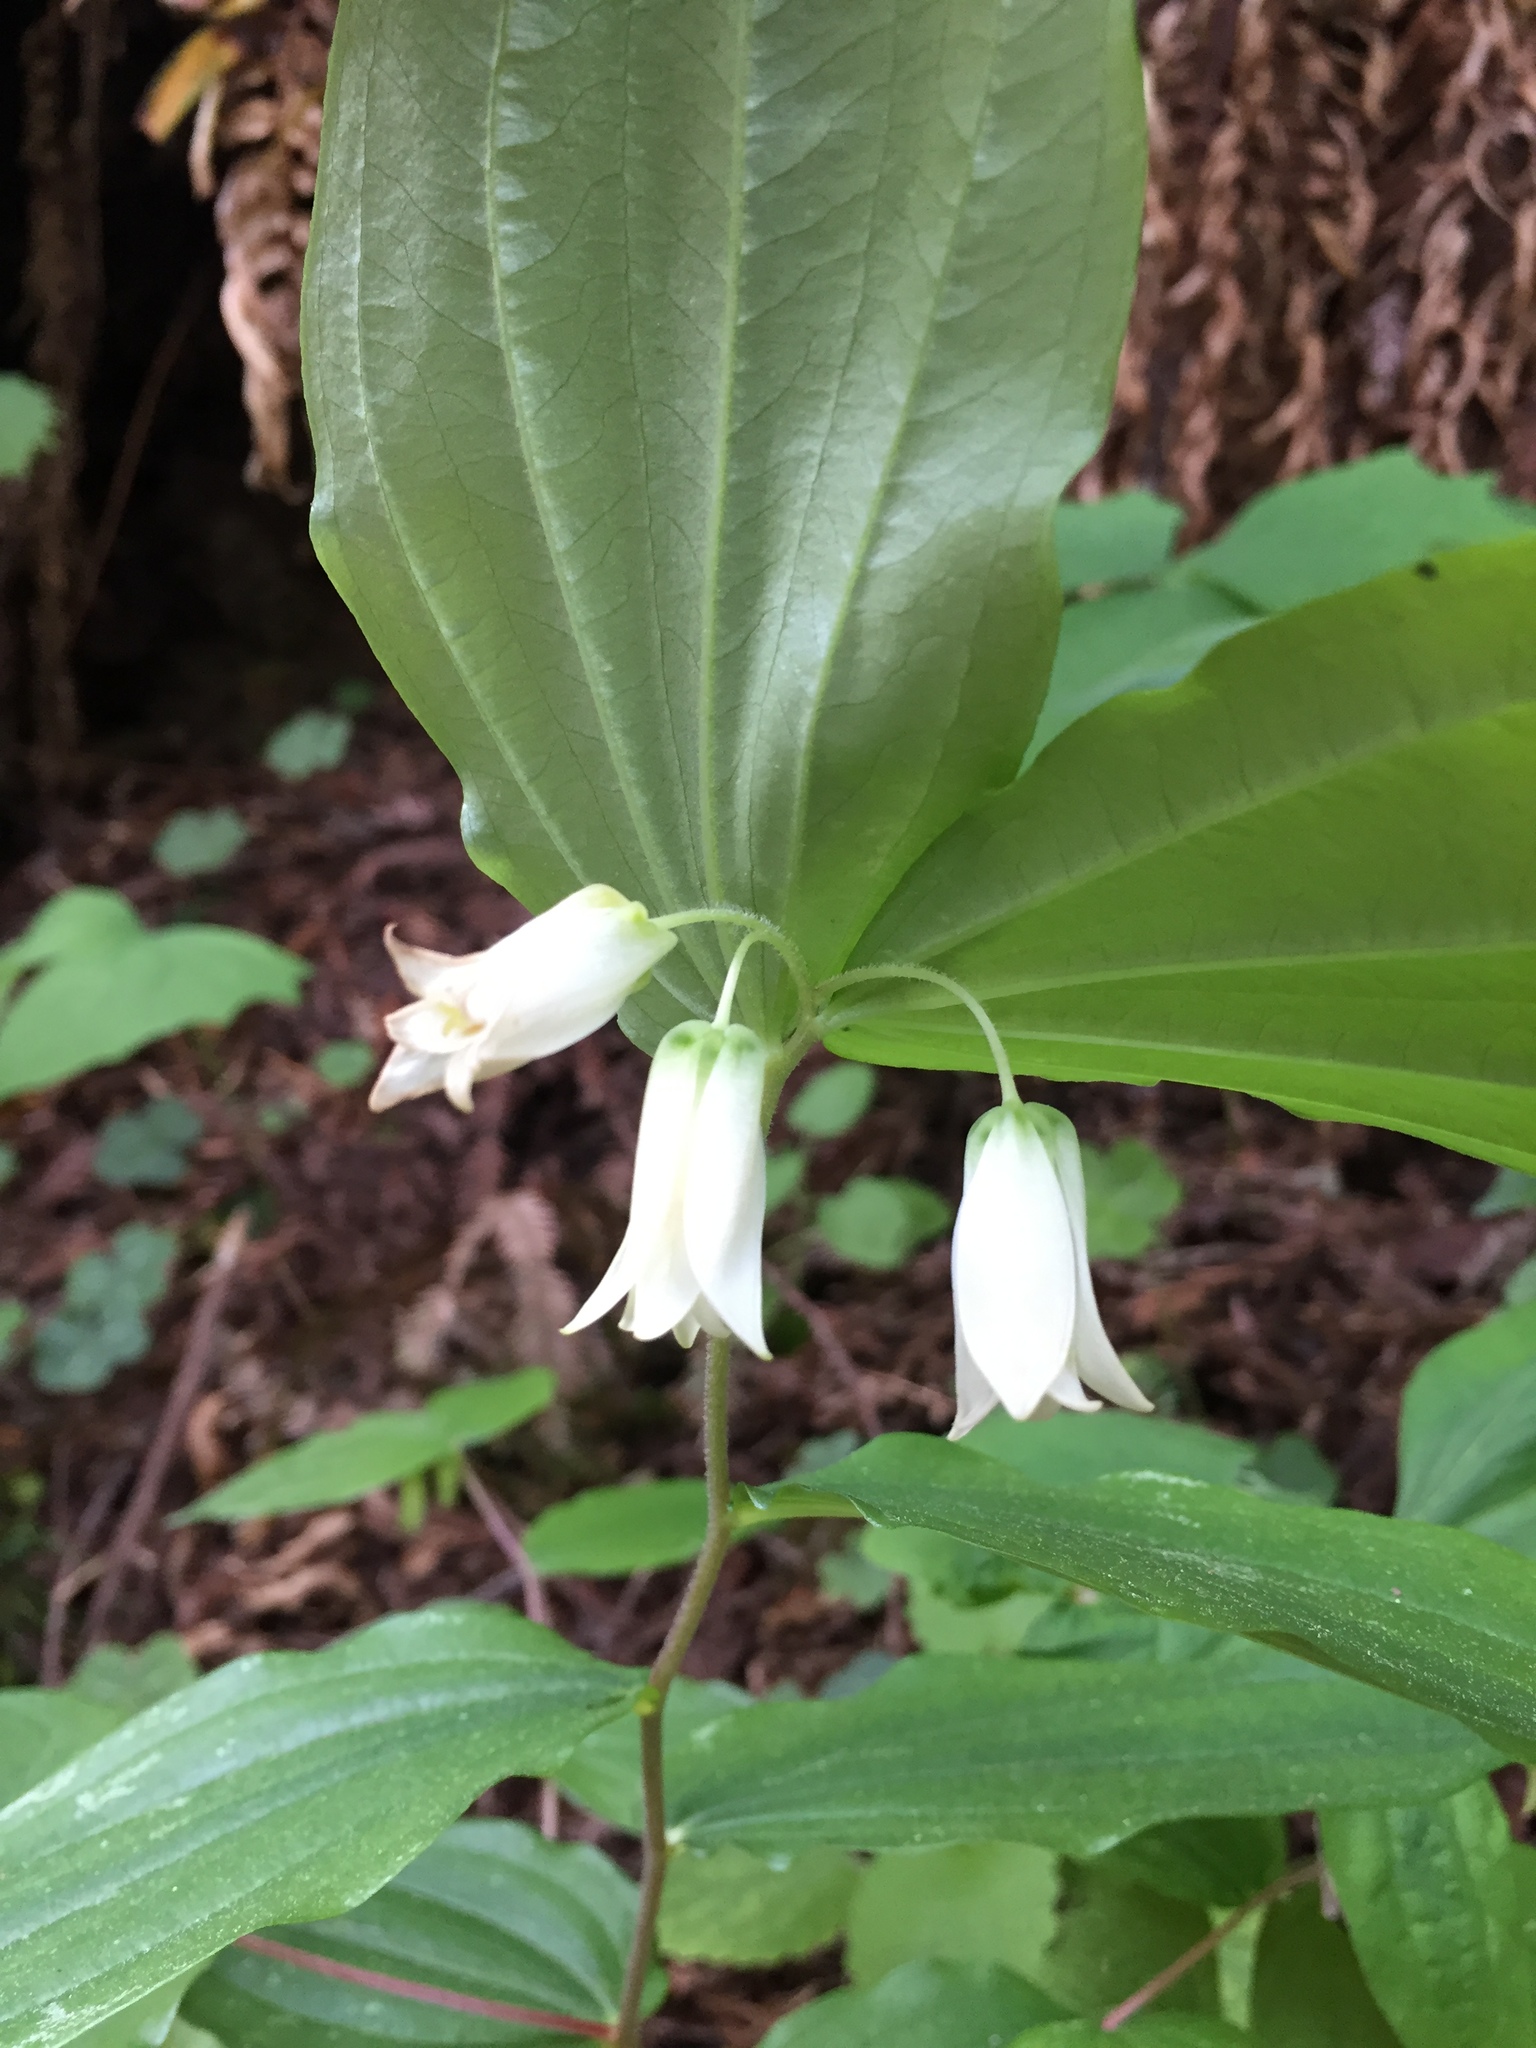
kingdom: Plantae
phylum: Tracheophyta
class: Liliopsida
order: Liliales
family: Liliaceae
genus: Prosartes
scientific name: Prosartes smithii
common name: Fairy-lantern
